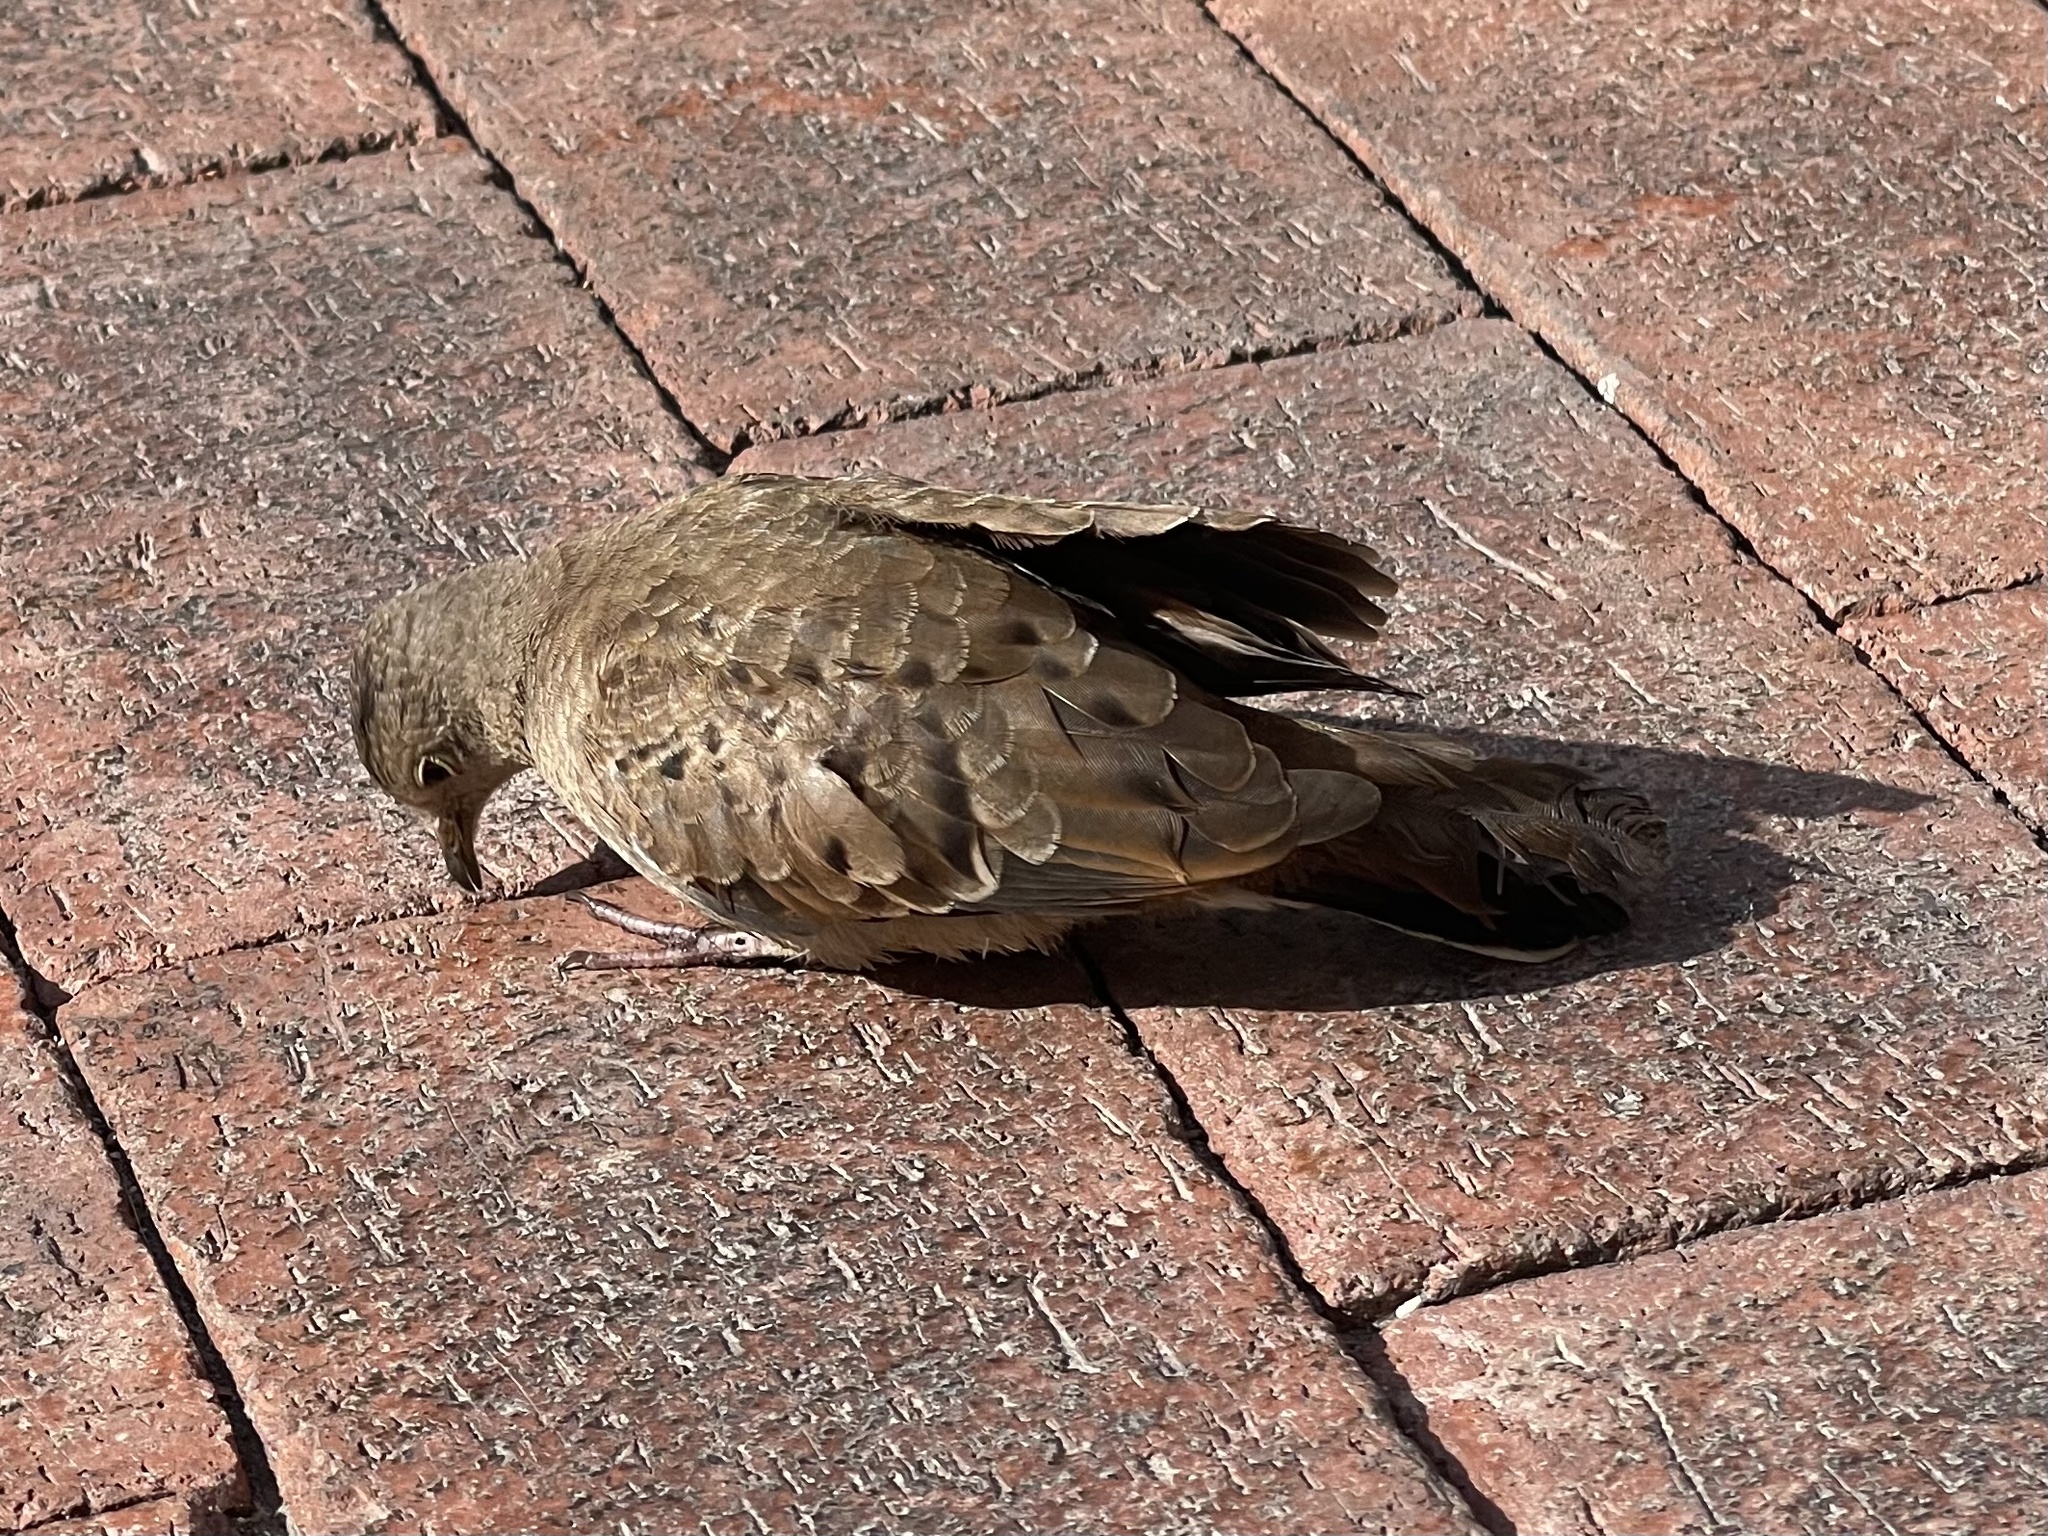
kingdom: Animalia
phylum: Chordata
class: Aves
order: Columbiformes
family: Columbidae
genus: Columbina
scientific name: Columbina talpacoti
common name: Ruddy ground dove
